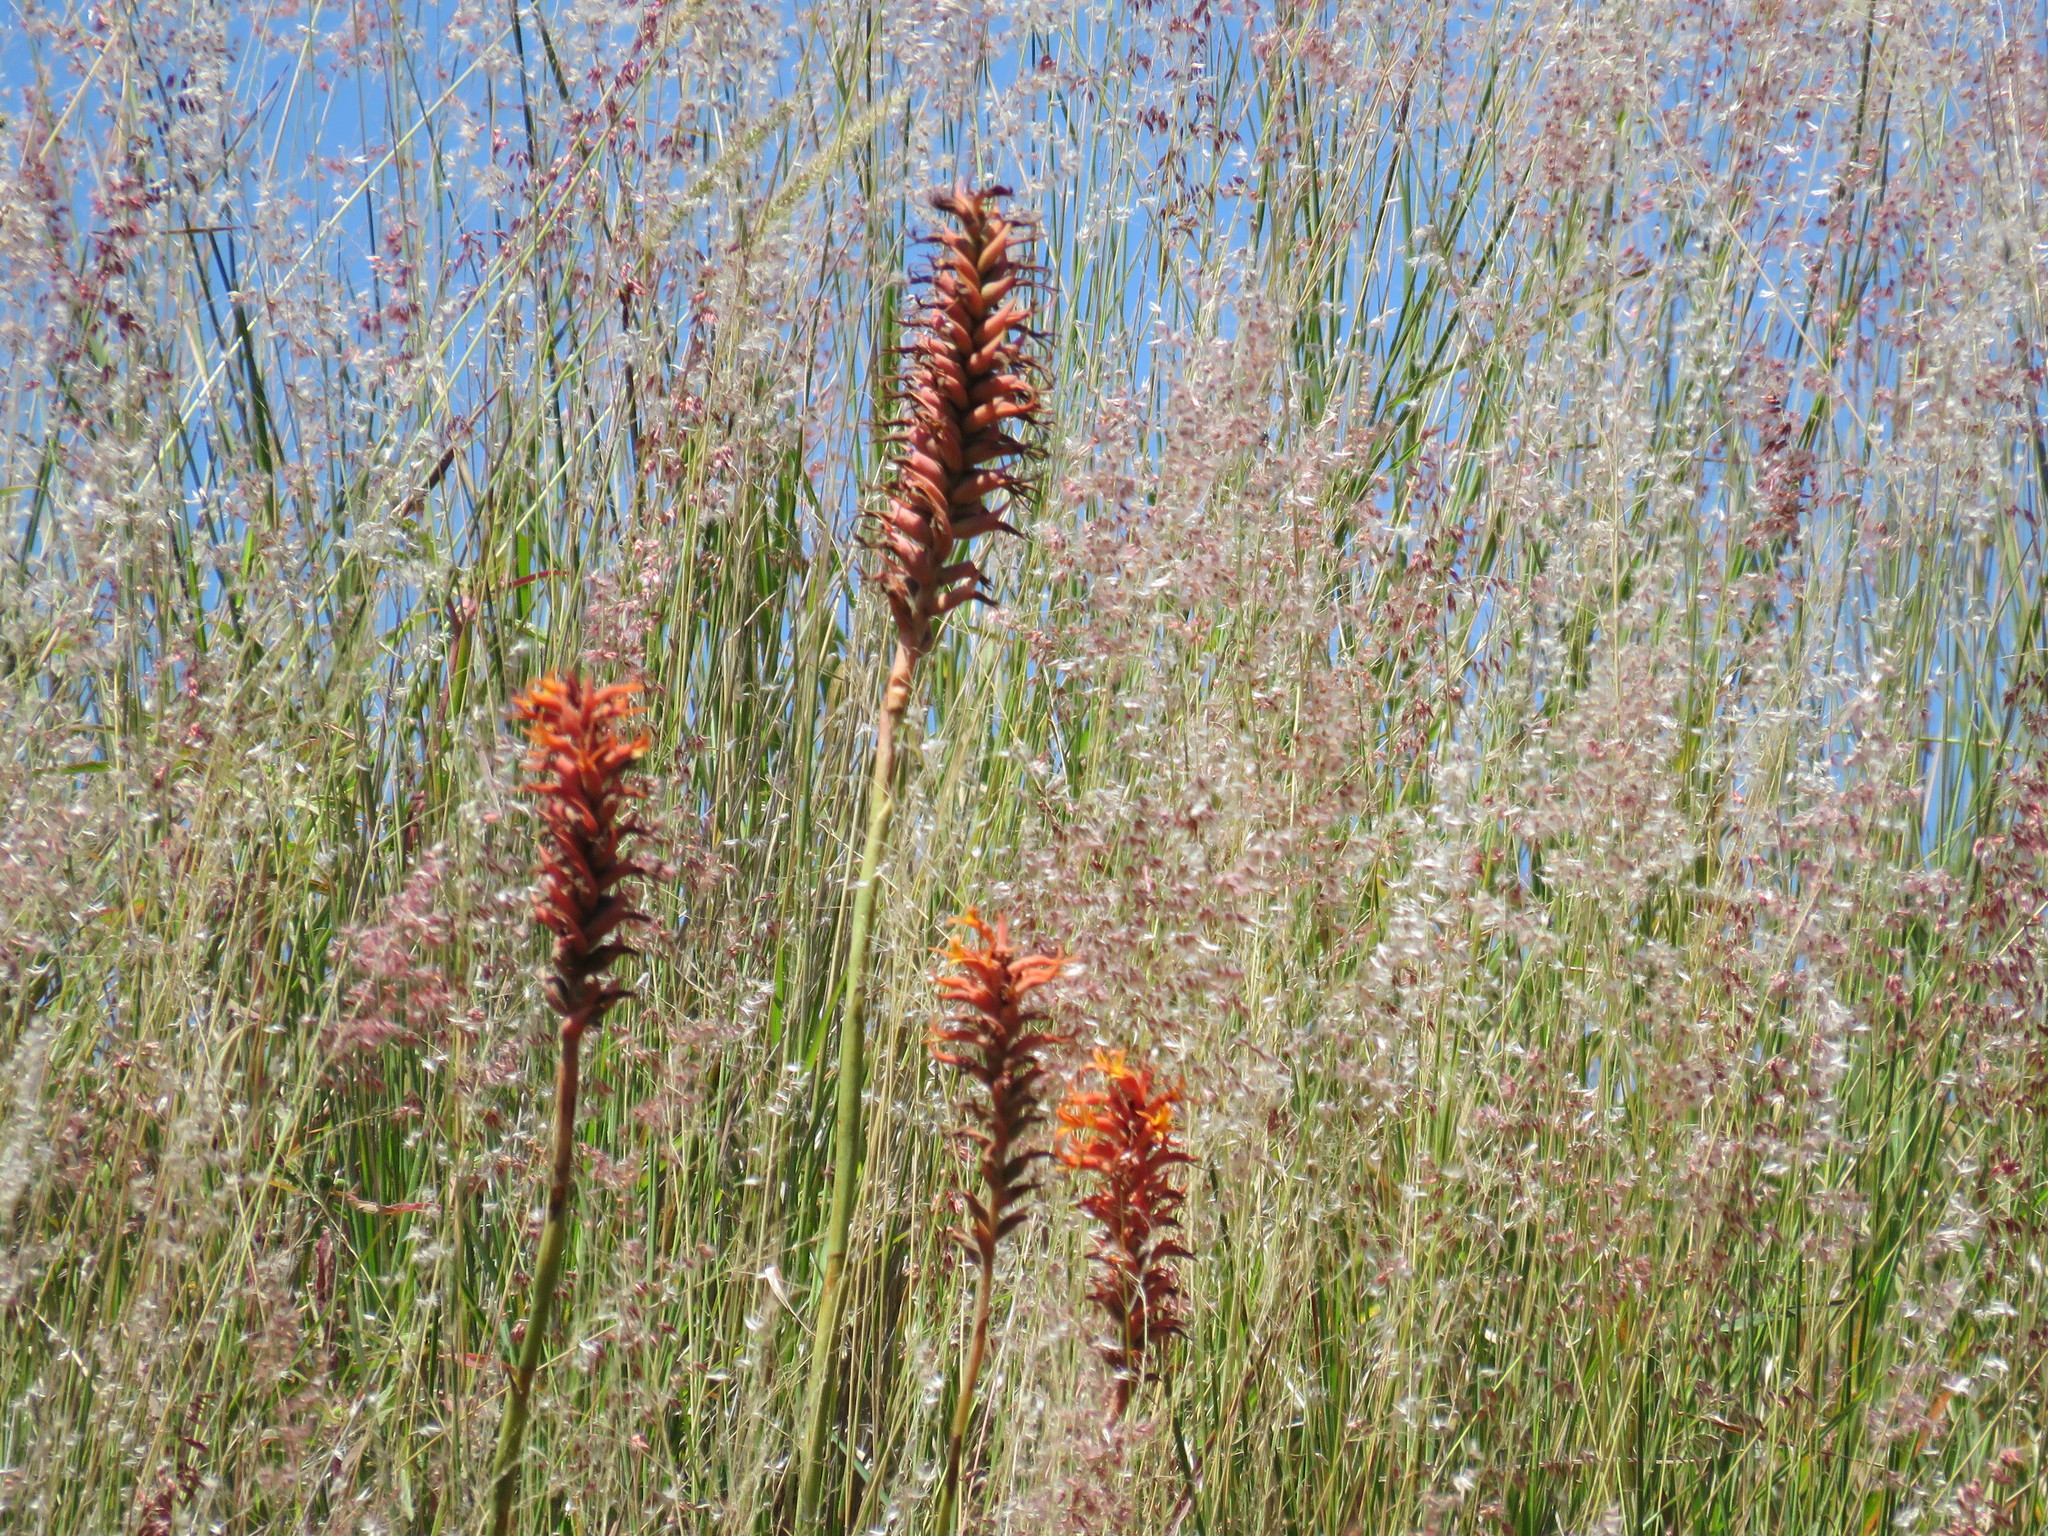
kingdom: Plantae
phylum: Tracheophyta
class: Liliopsida
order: Asparagales
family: Orchidaceae
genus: Dichromanthus
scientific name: Dichromanthus cinnabarinus
